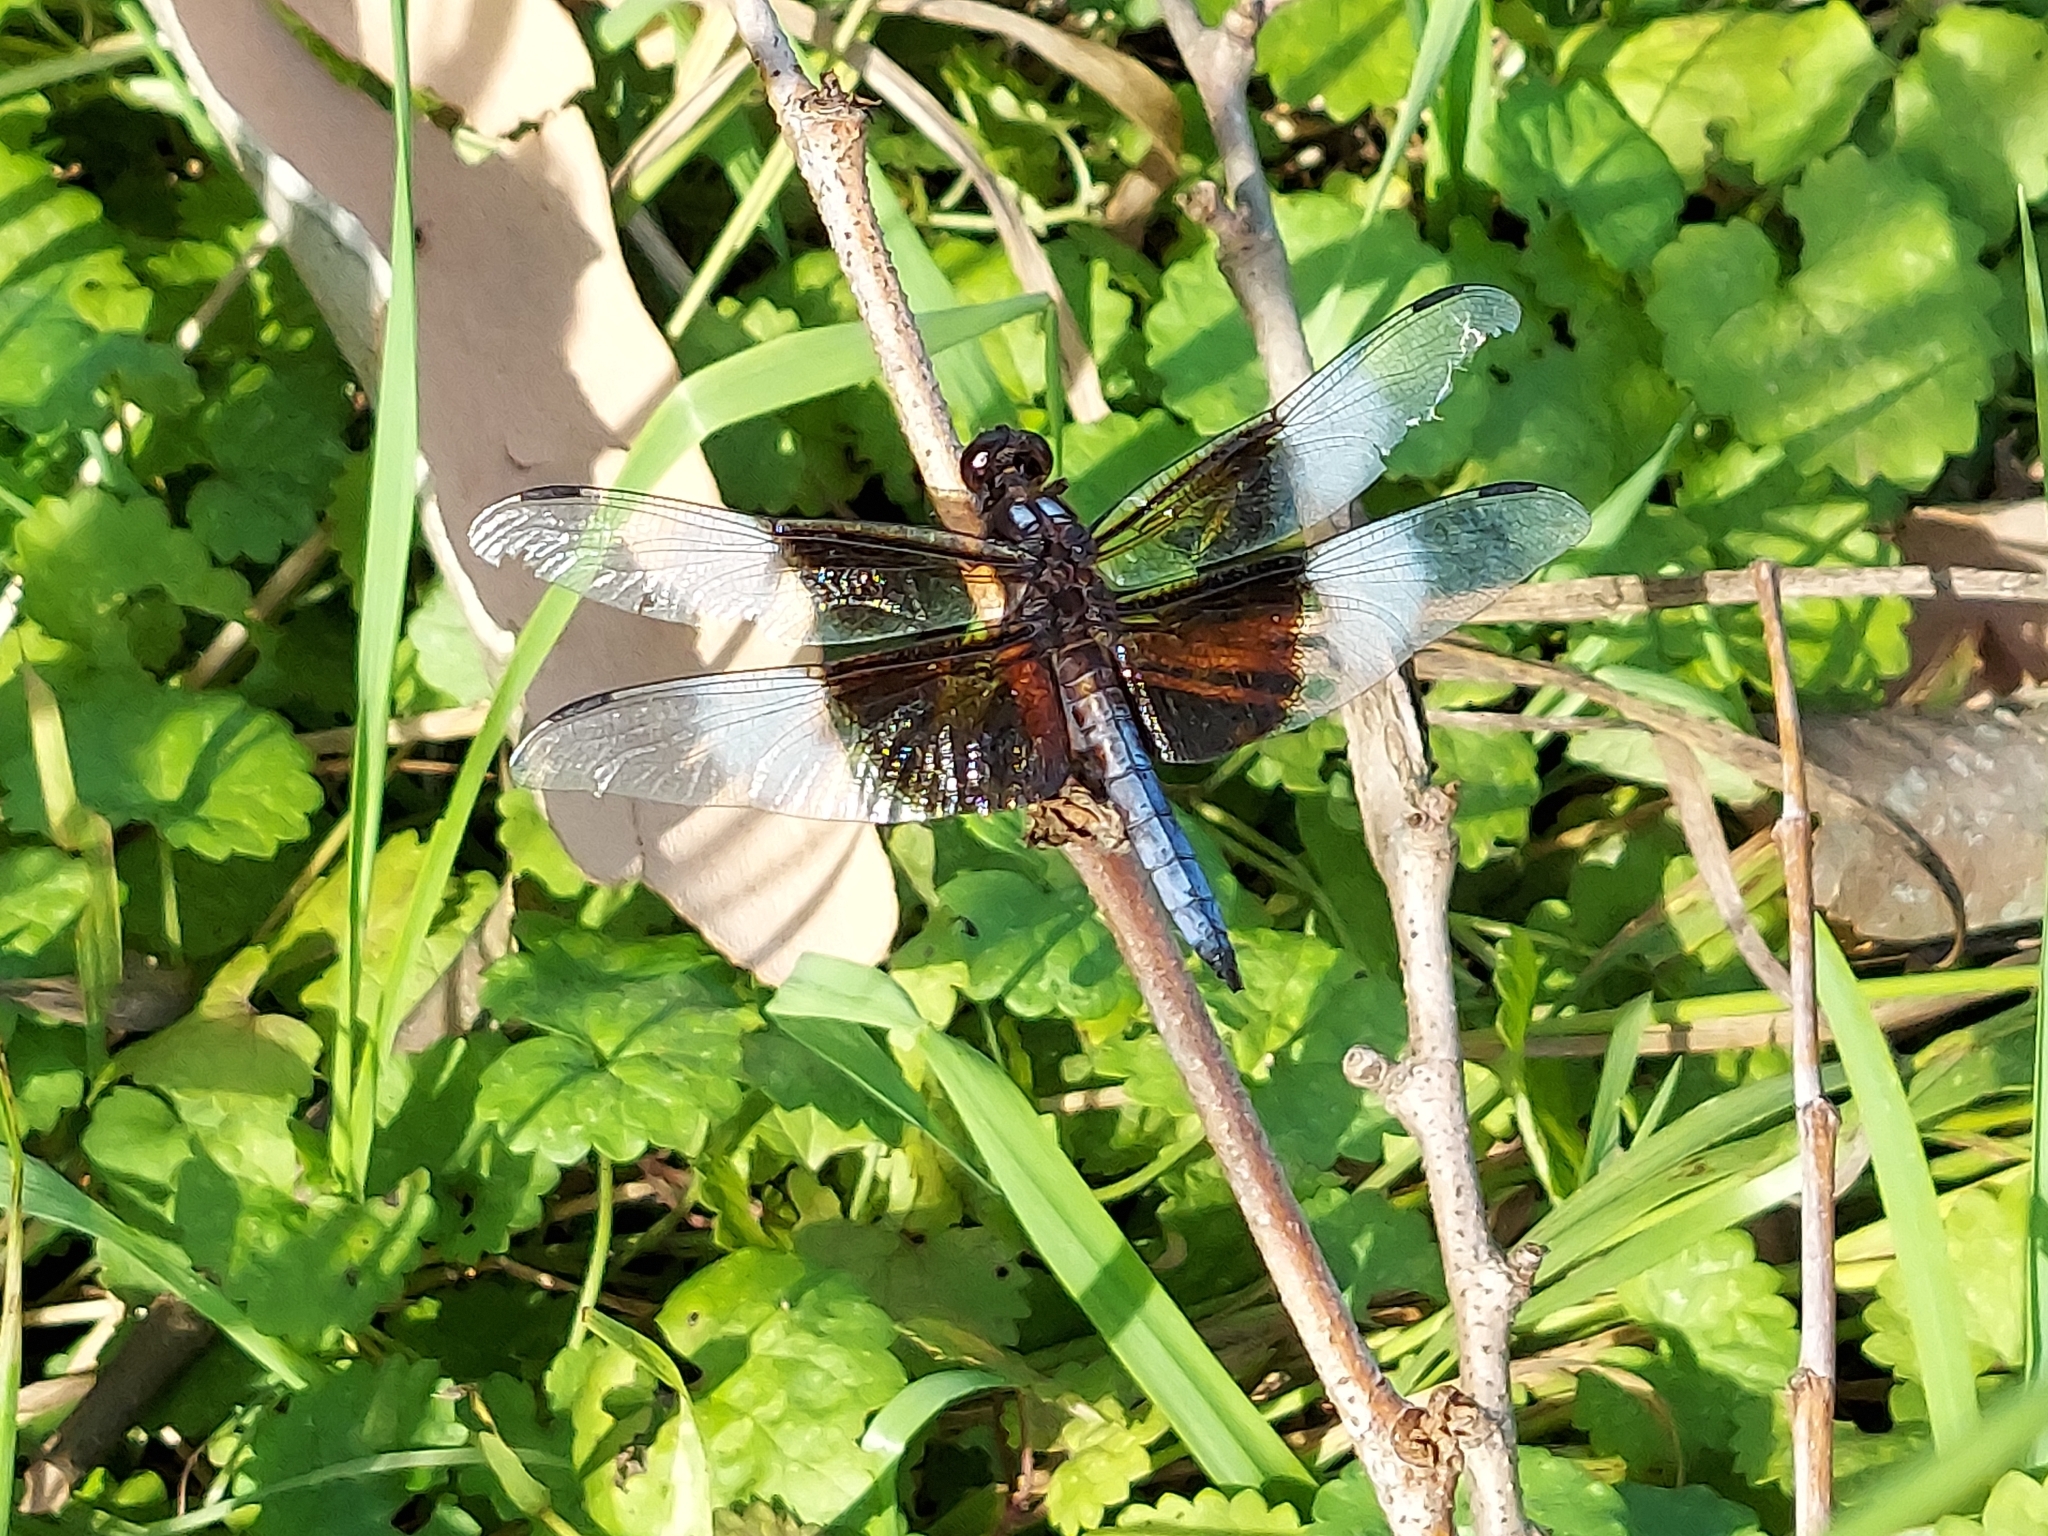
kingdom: Animalia
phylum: Arthropoda
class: Insecta
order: Odonata
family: Libellulidae
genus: Libellula
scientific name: Libellula luctuosa
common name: Widow skimmer
